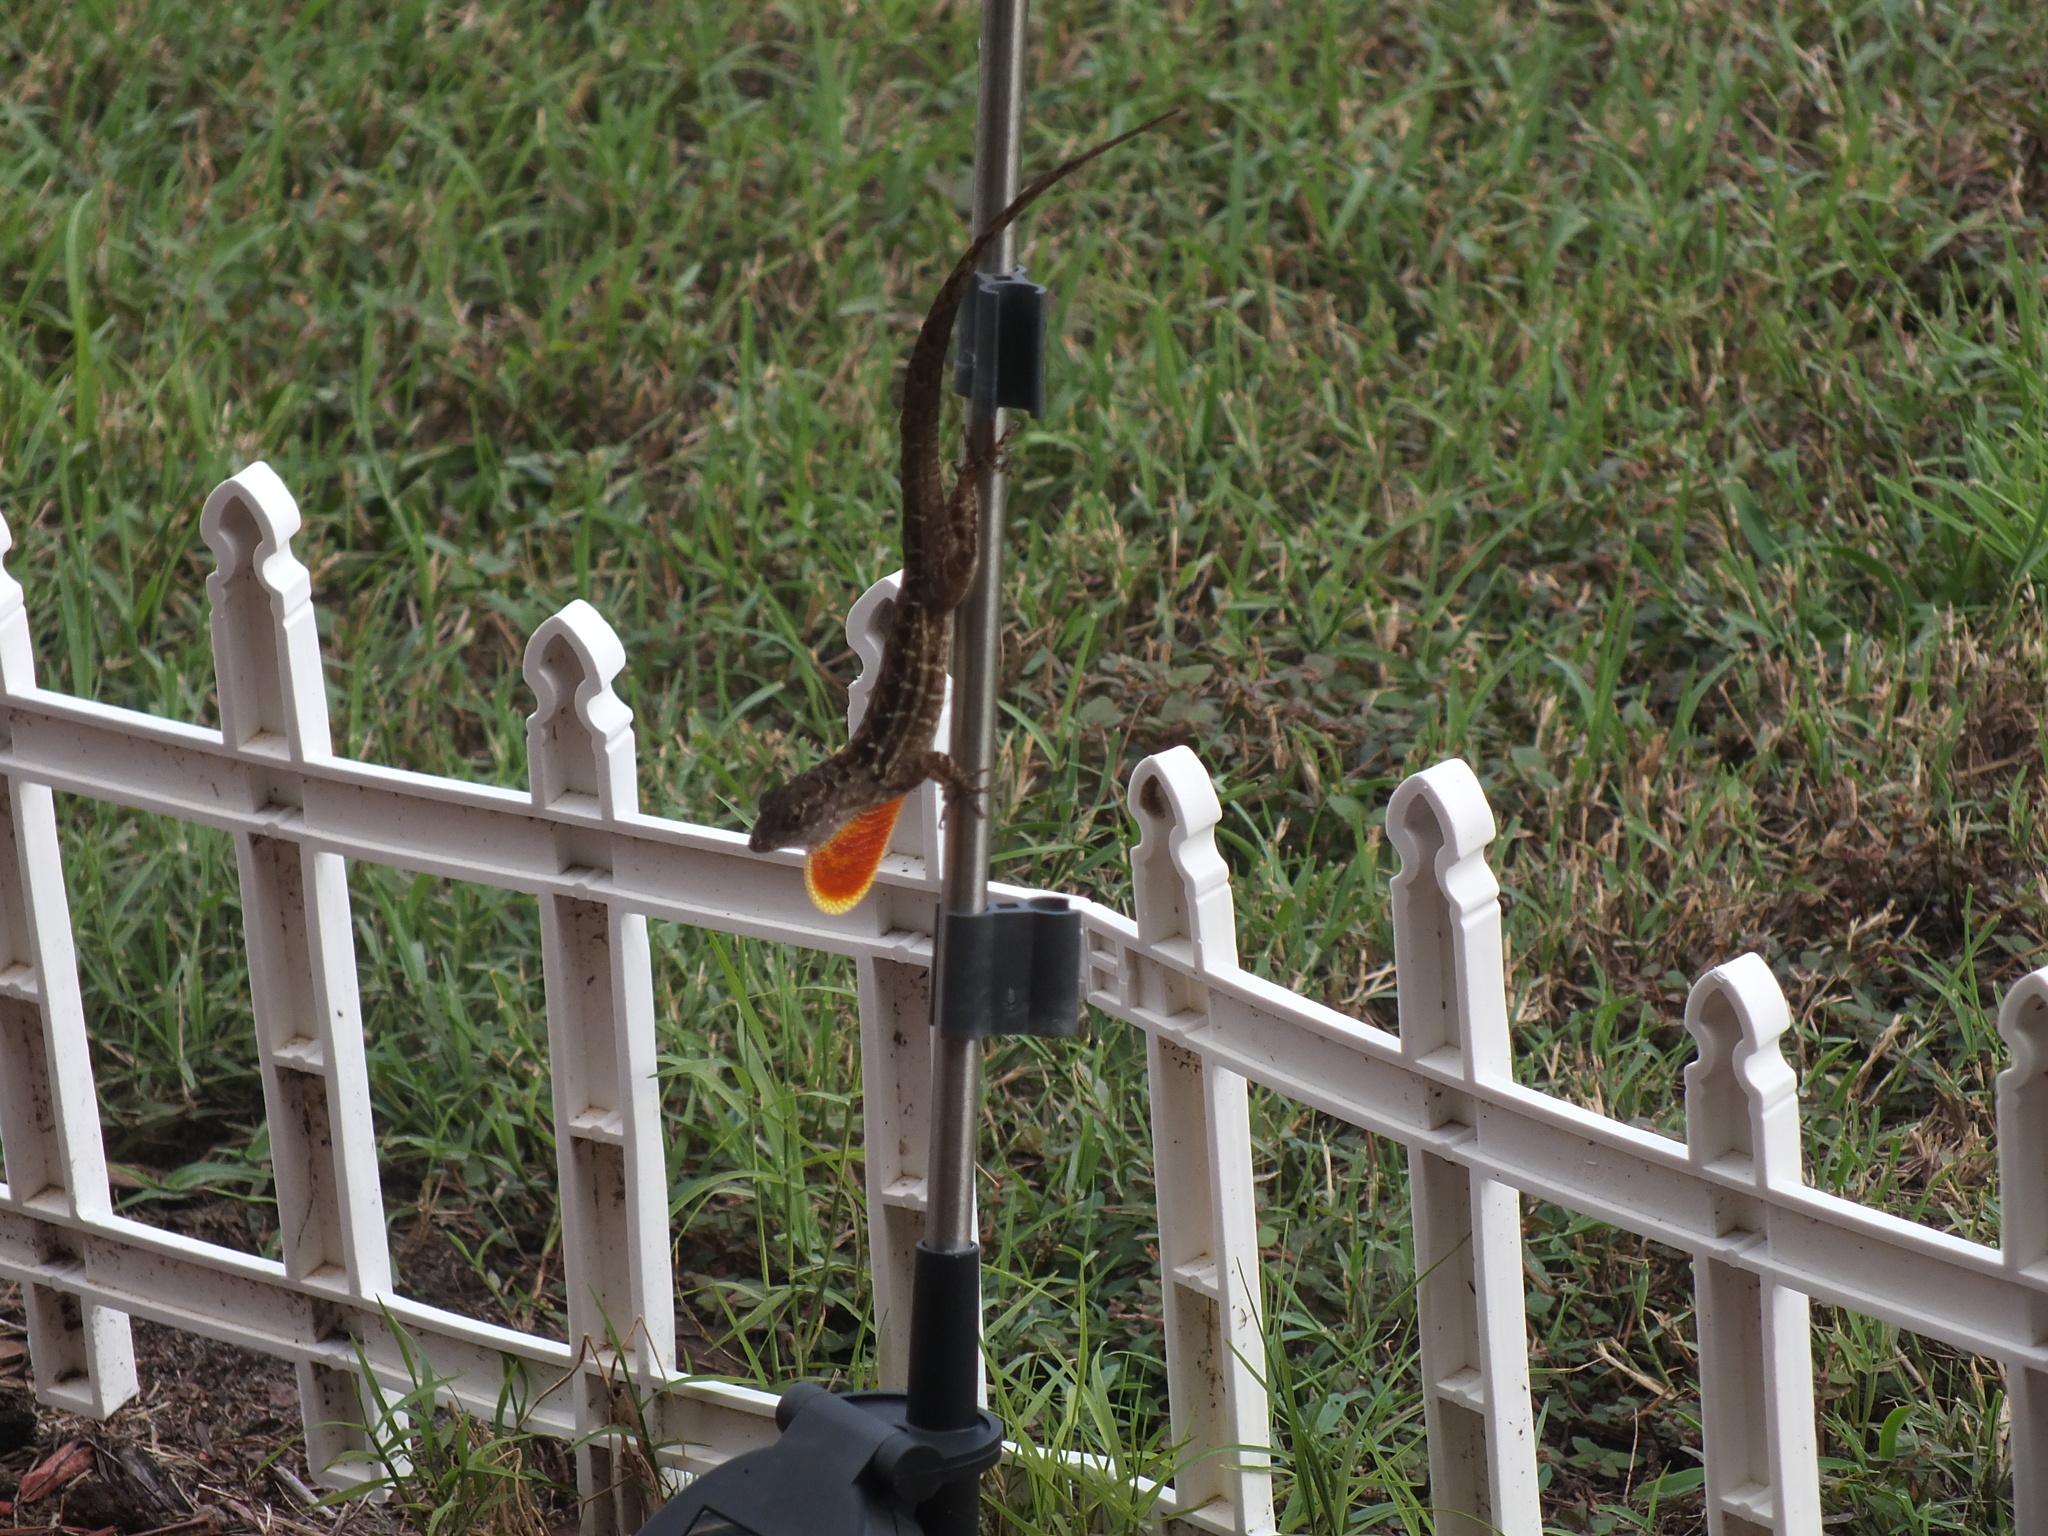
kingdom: Animalia
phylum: Chordata
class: Squamata
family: Dactyloidae
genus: Anolis
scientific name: Anolis sagrei
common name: Brown anole
